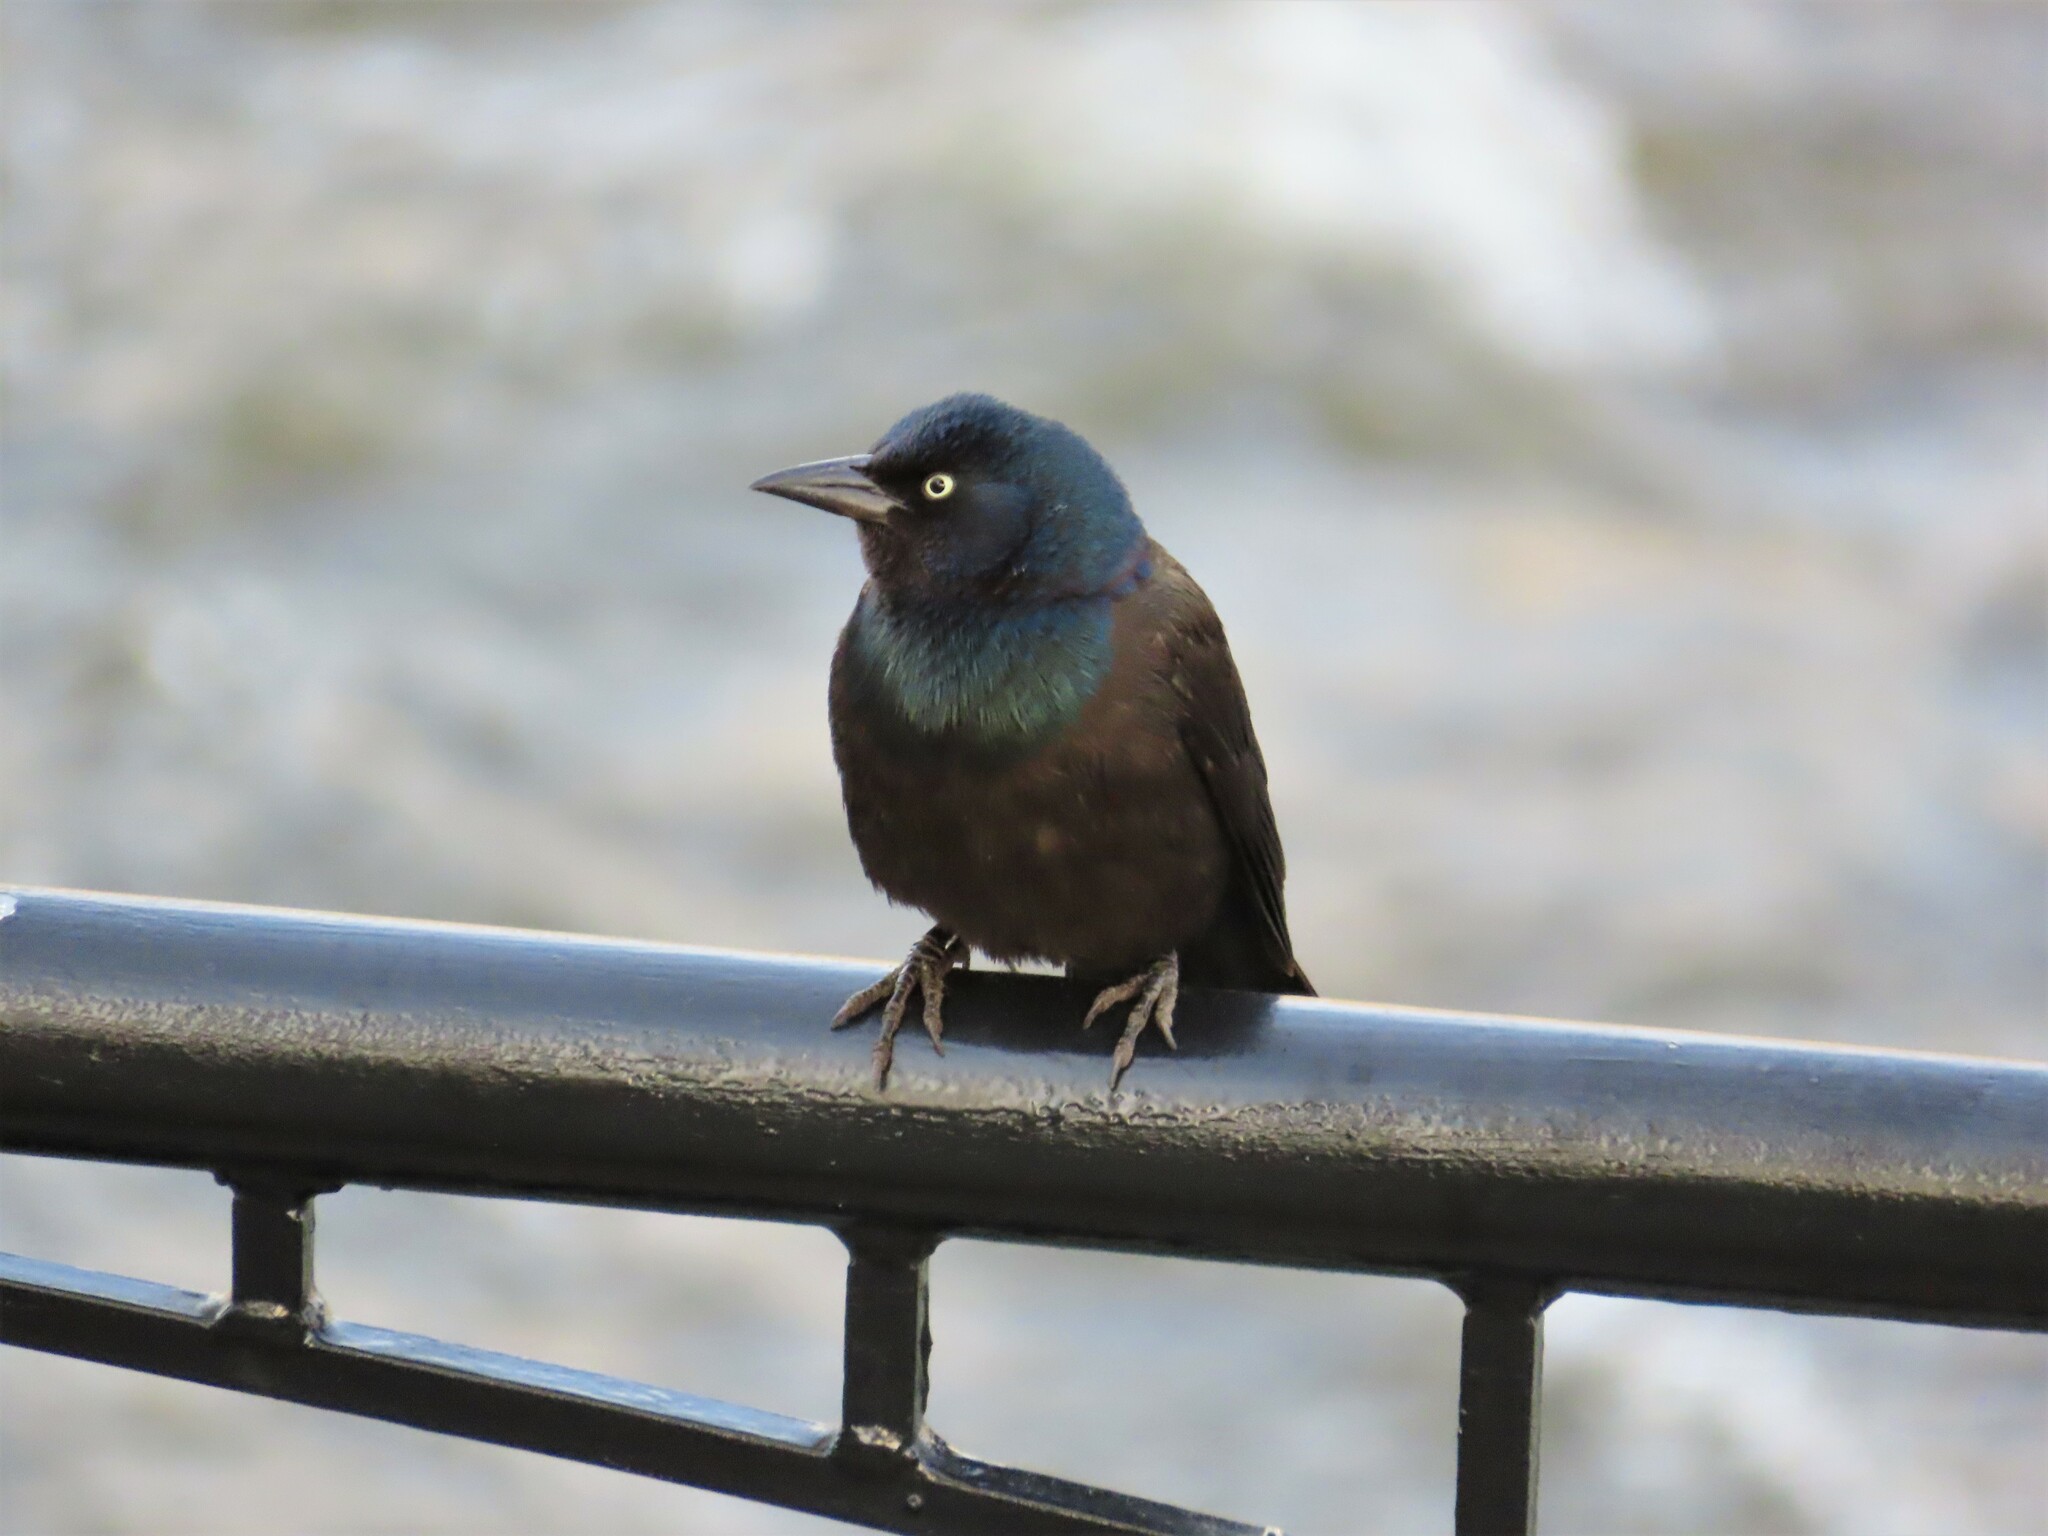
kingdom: Animalia
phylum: Chordata
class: Aves
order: Passeriformes
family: Icteridae
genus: Quiscalus
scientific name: Quiscalus quiscula
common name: Common grackle
